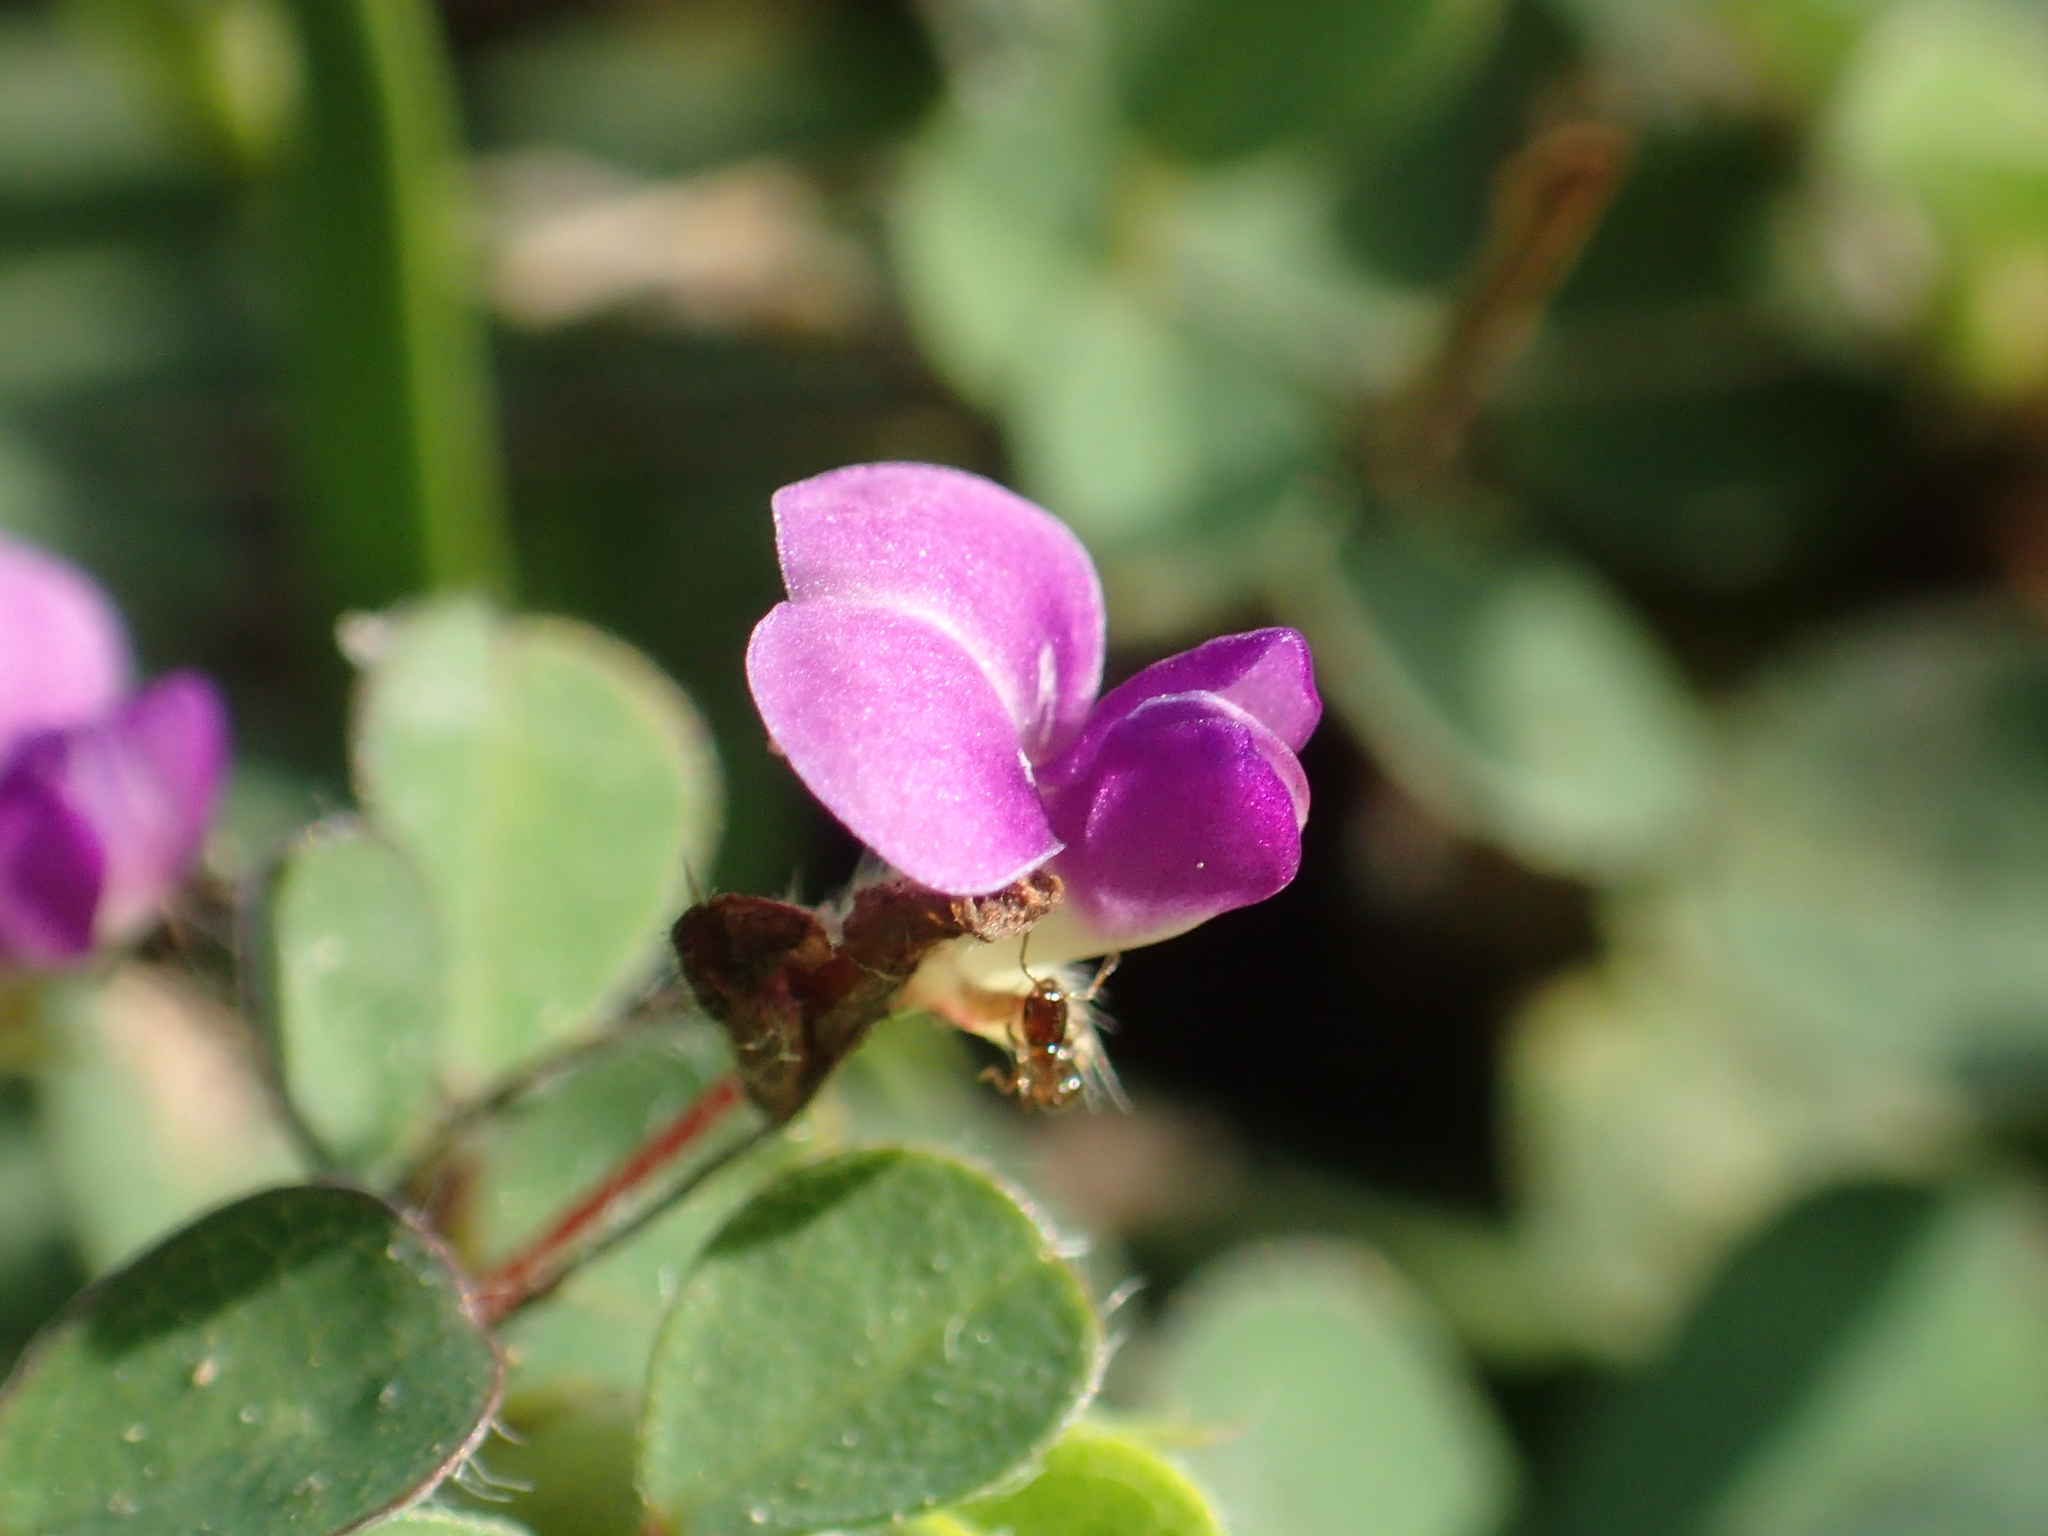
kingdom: Plantae
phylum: Tracheophyta
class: Magnoliopsida
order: Fabales
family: Fabaceae
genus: Grona
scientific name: Grona triflora
